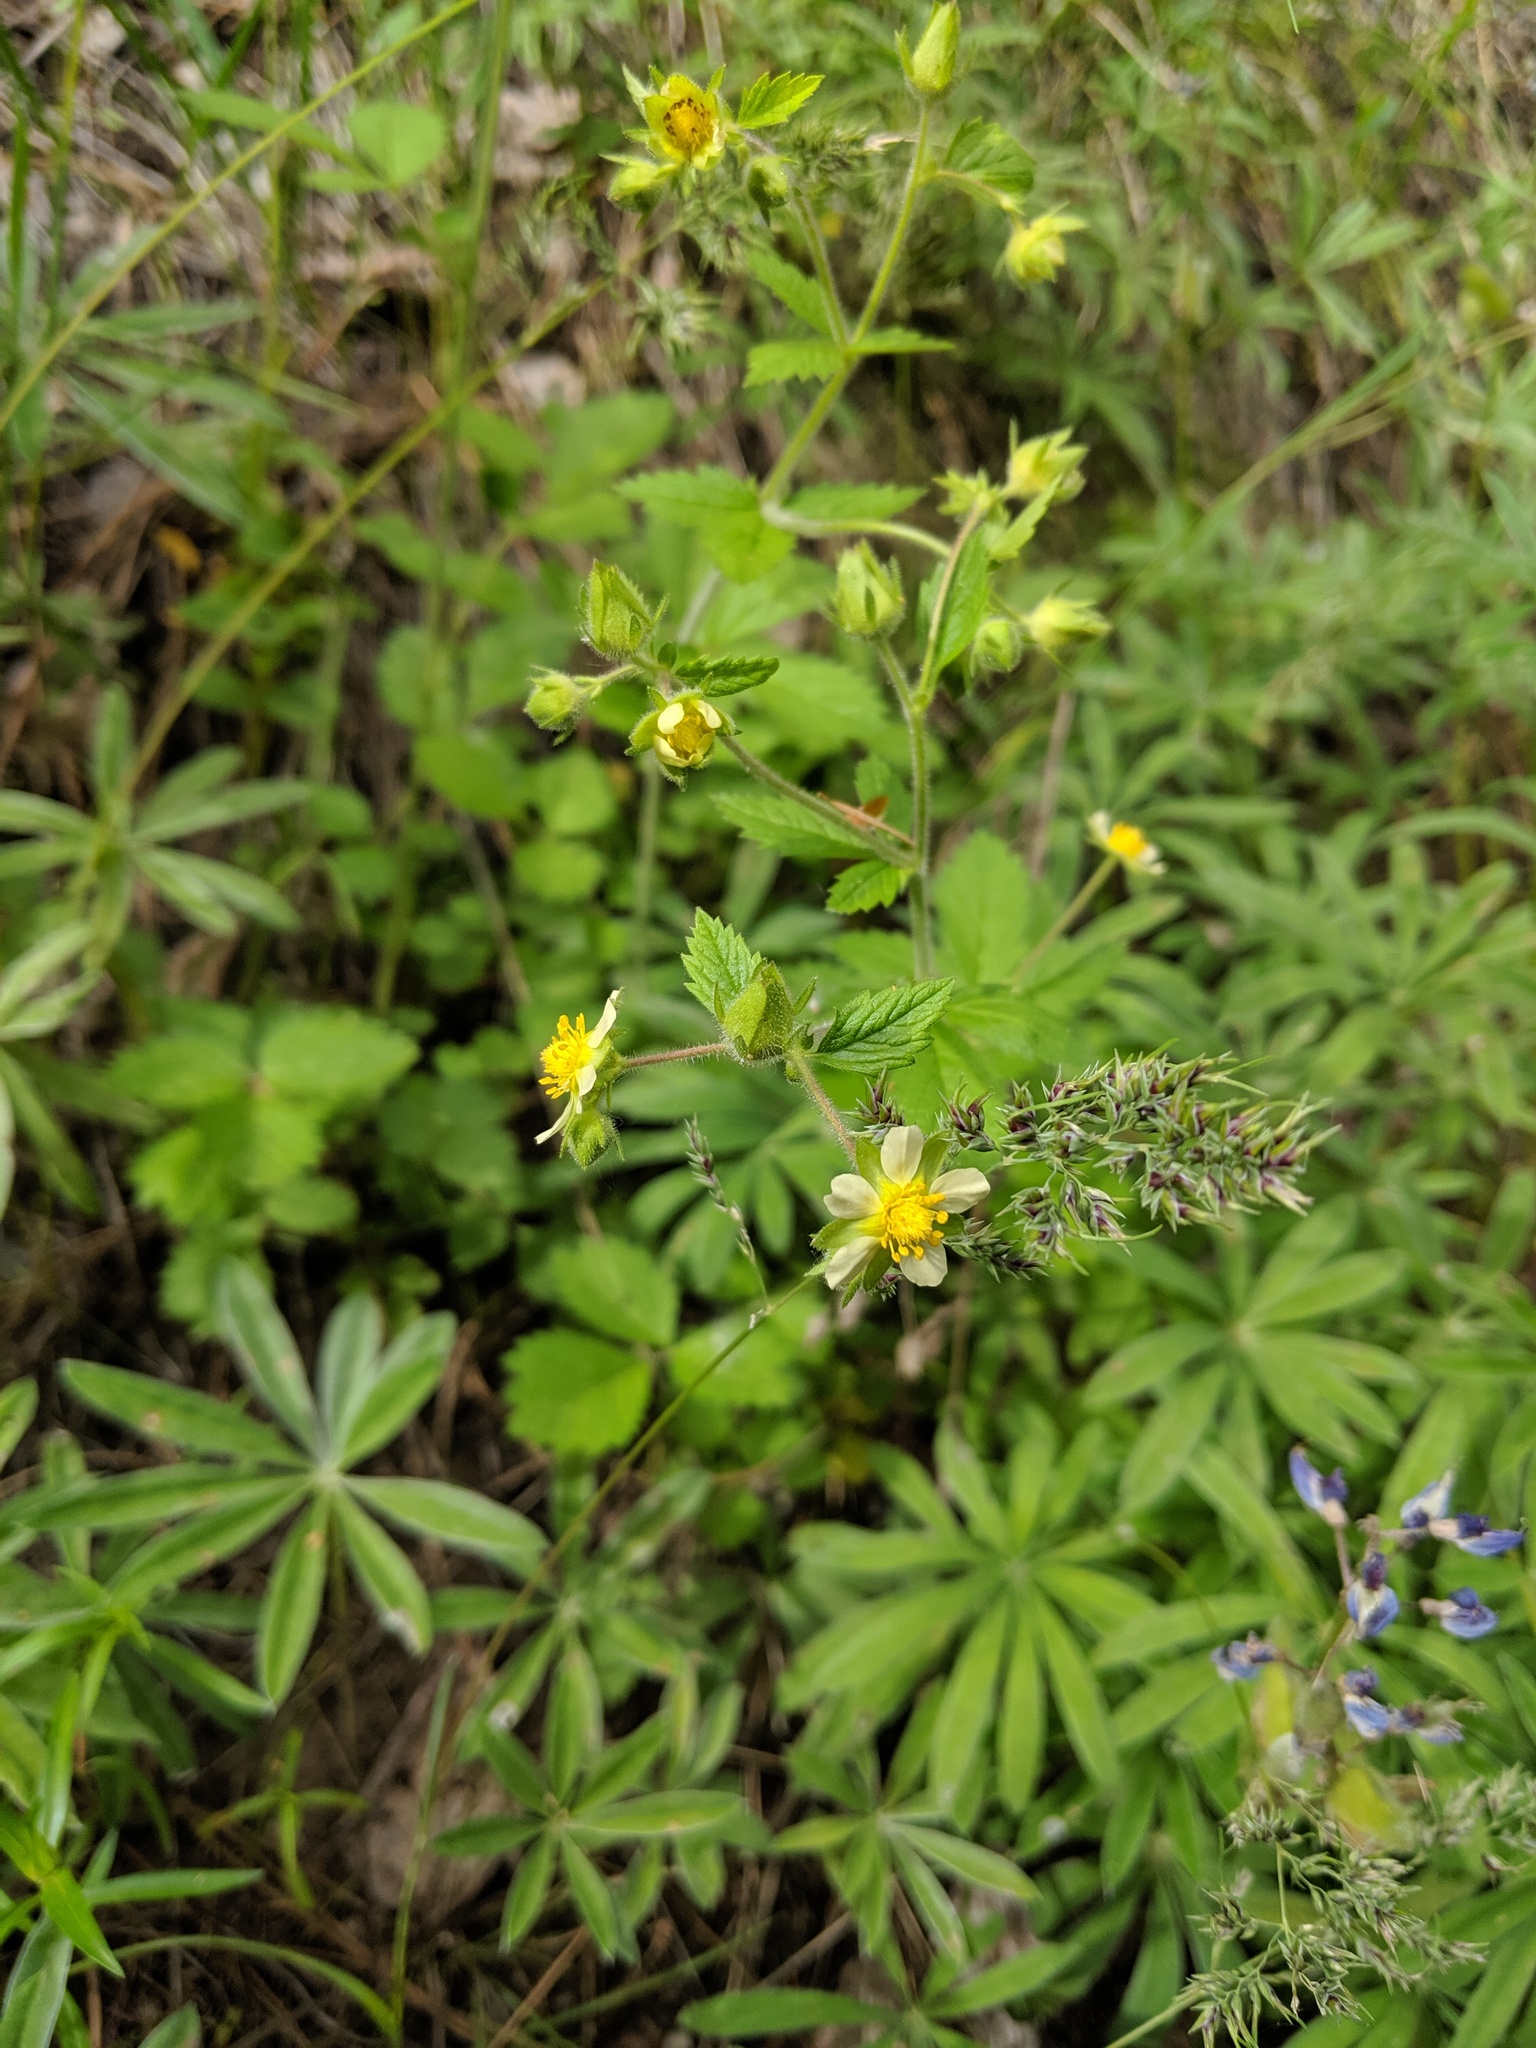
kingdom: Plantae
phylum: Tracheophyta
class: Magnoliopsida
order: Rosales
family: Rosaceae
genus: Drymocallis
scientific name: Drymocallis glandulosa
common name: Sticky cinquefoil
